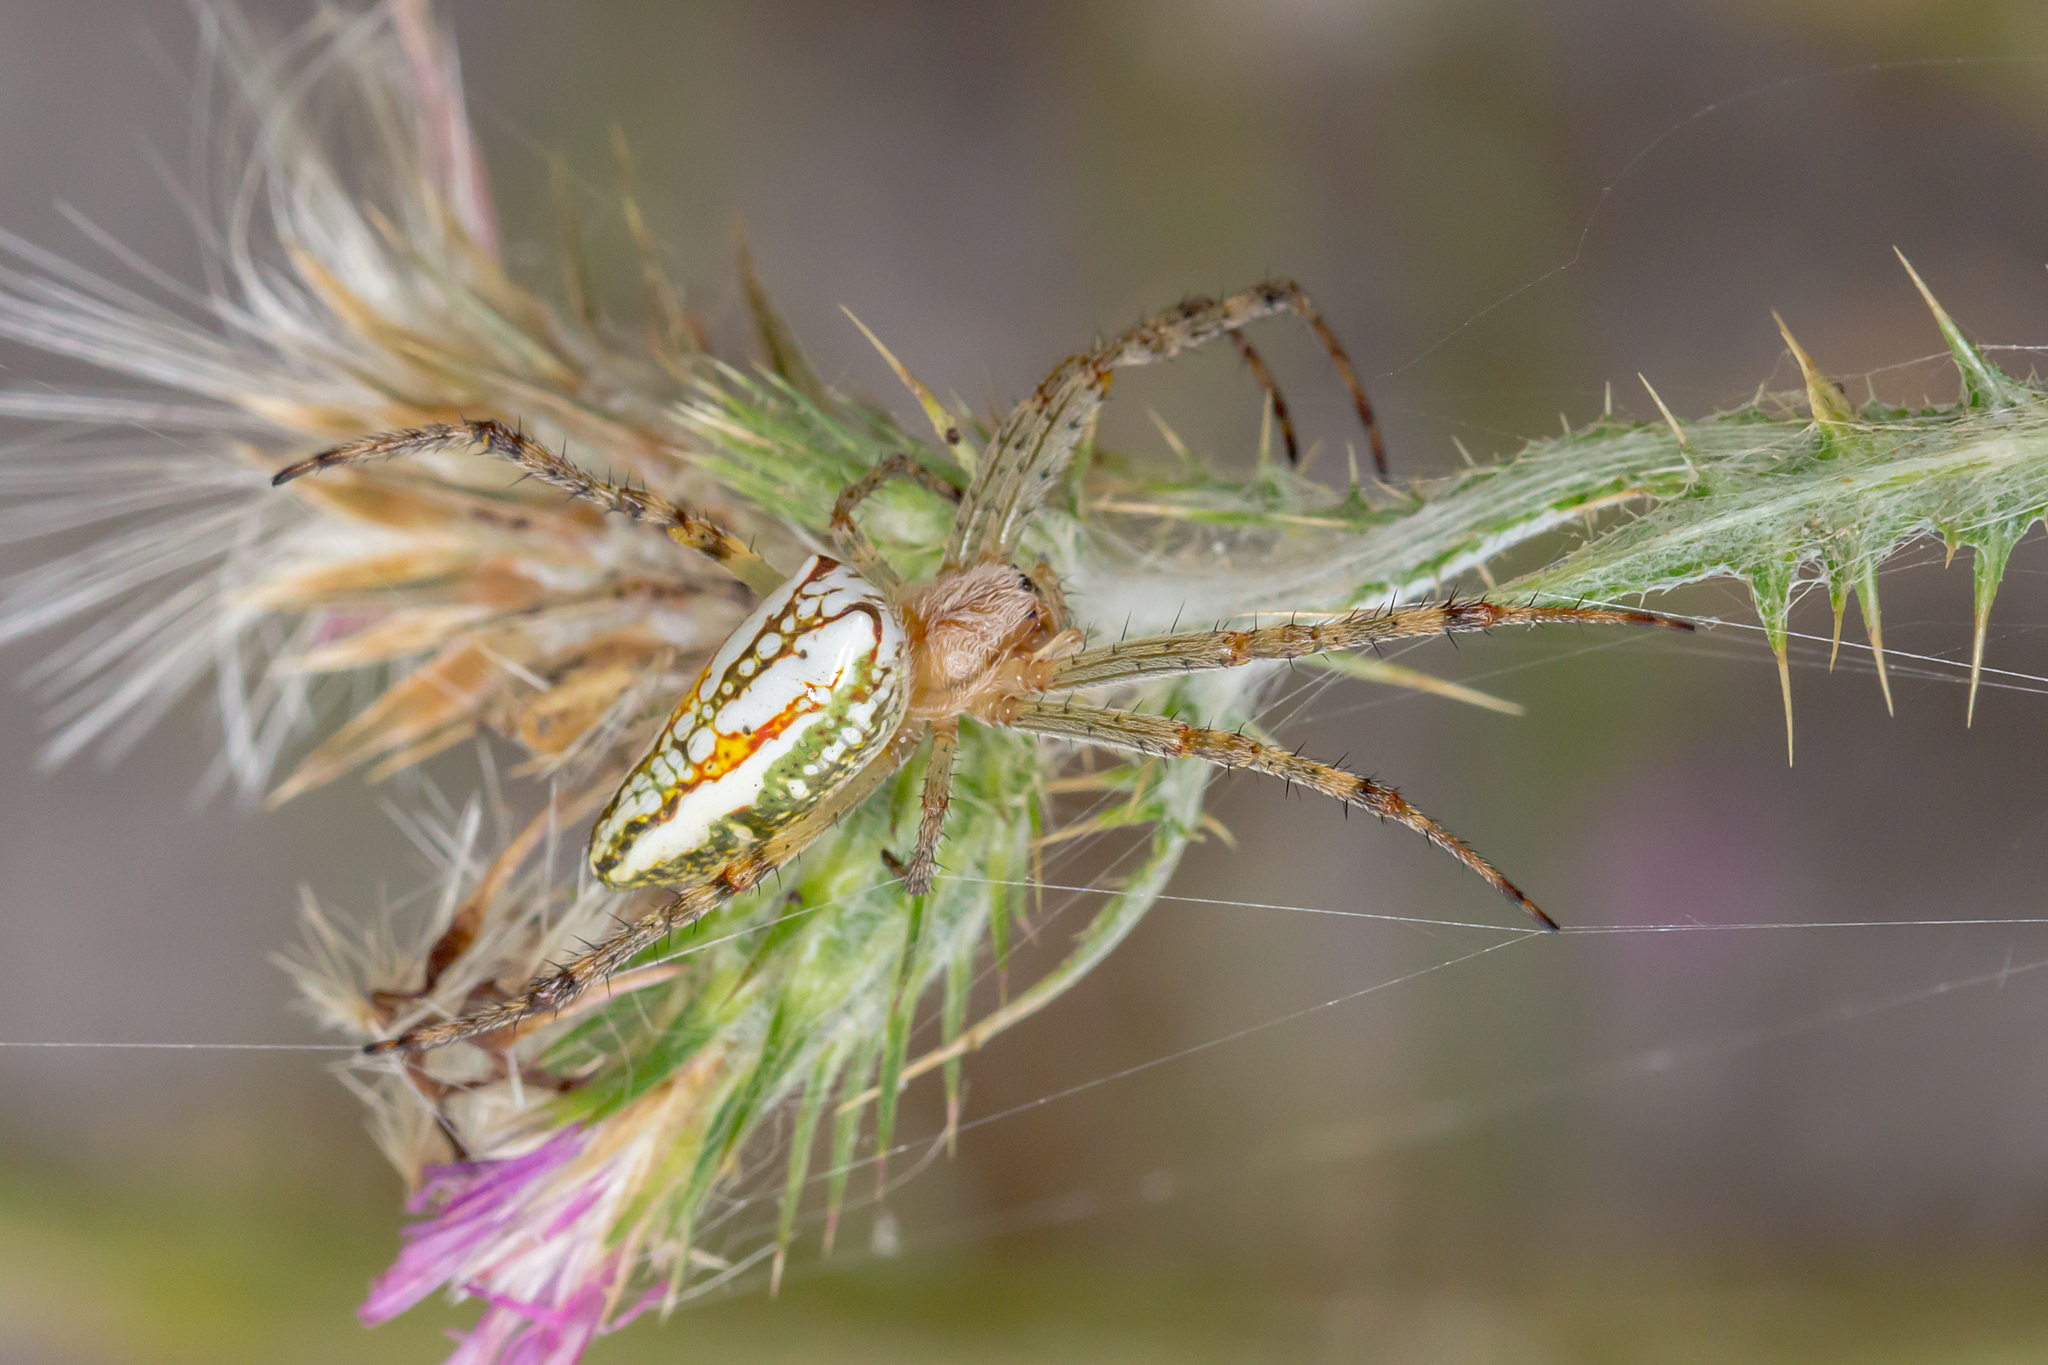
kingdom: Animalia
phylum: Arthropoda
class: Arachnida
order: Araneae
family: Araneidae
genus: Plebs
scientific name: Plebs bradleyi
